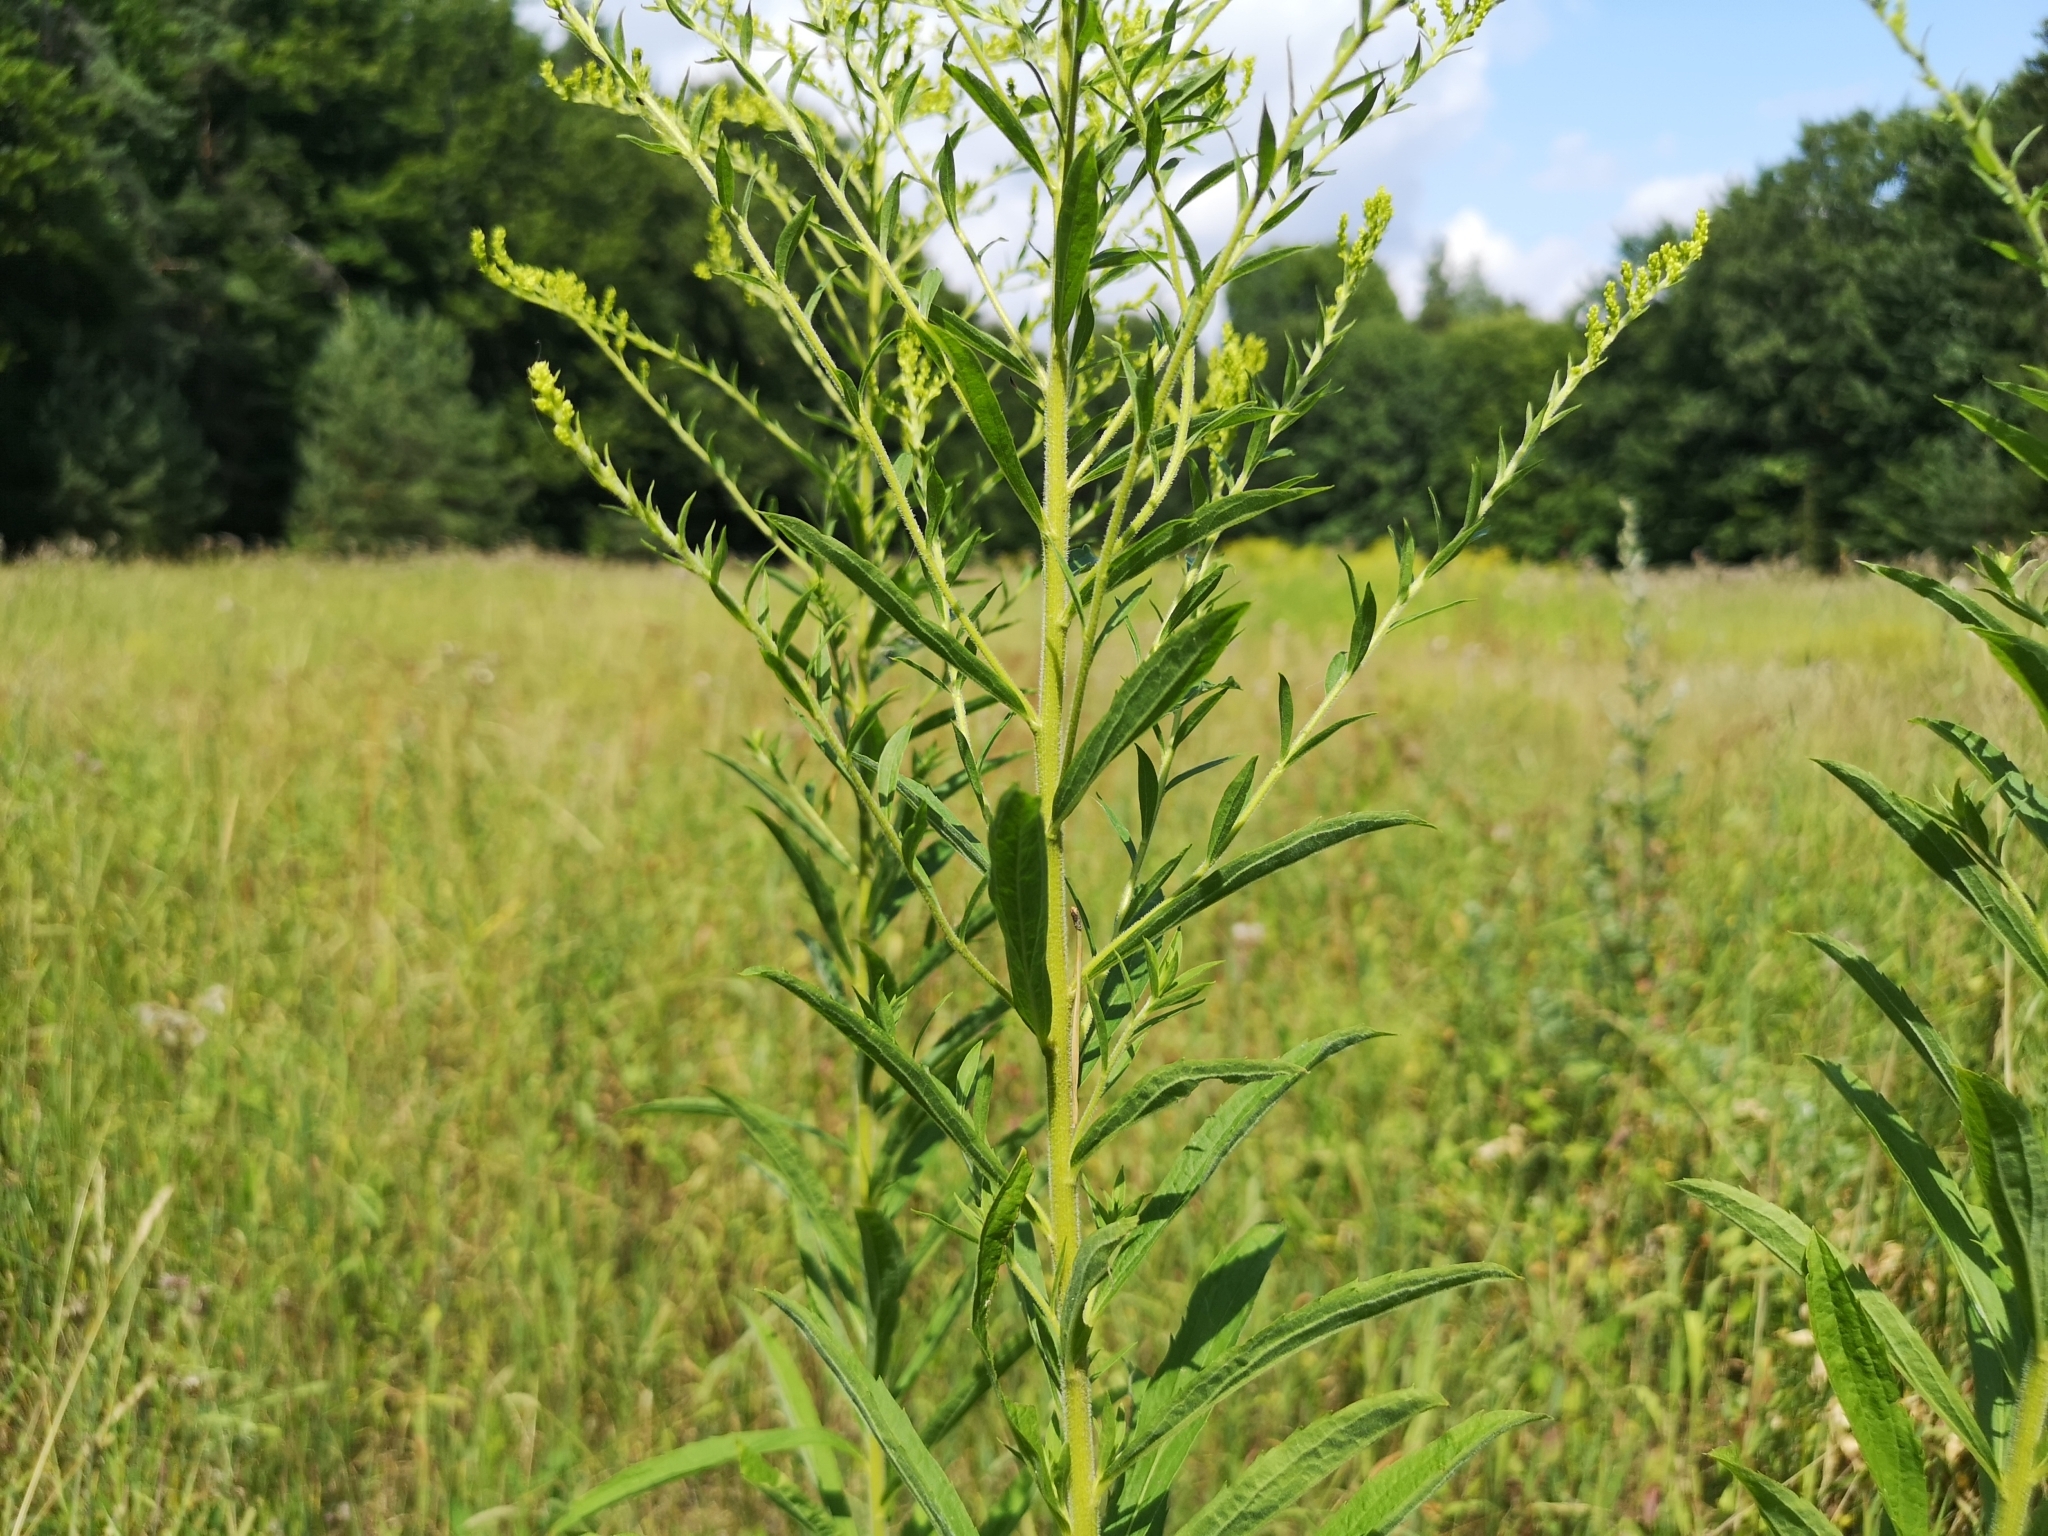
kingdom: Plantae
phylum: Tracheophyta
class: Magnoliopsida
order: Asterales
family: Asteraceae
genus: Solidago
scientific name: Solidago canadensis
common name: Canada goldenrod
